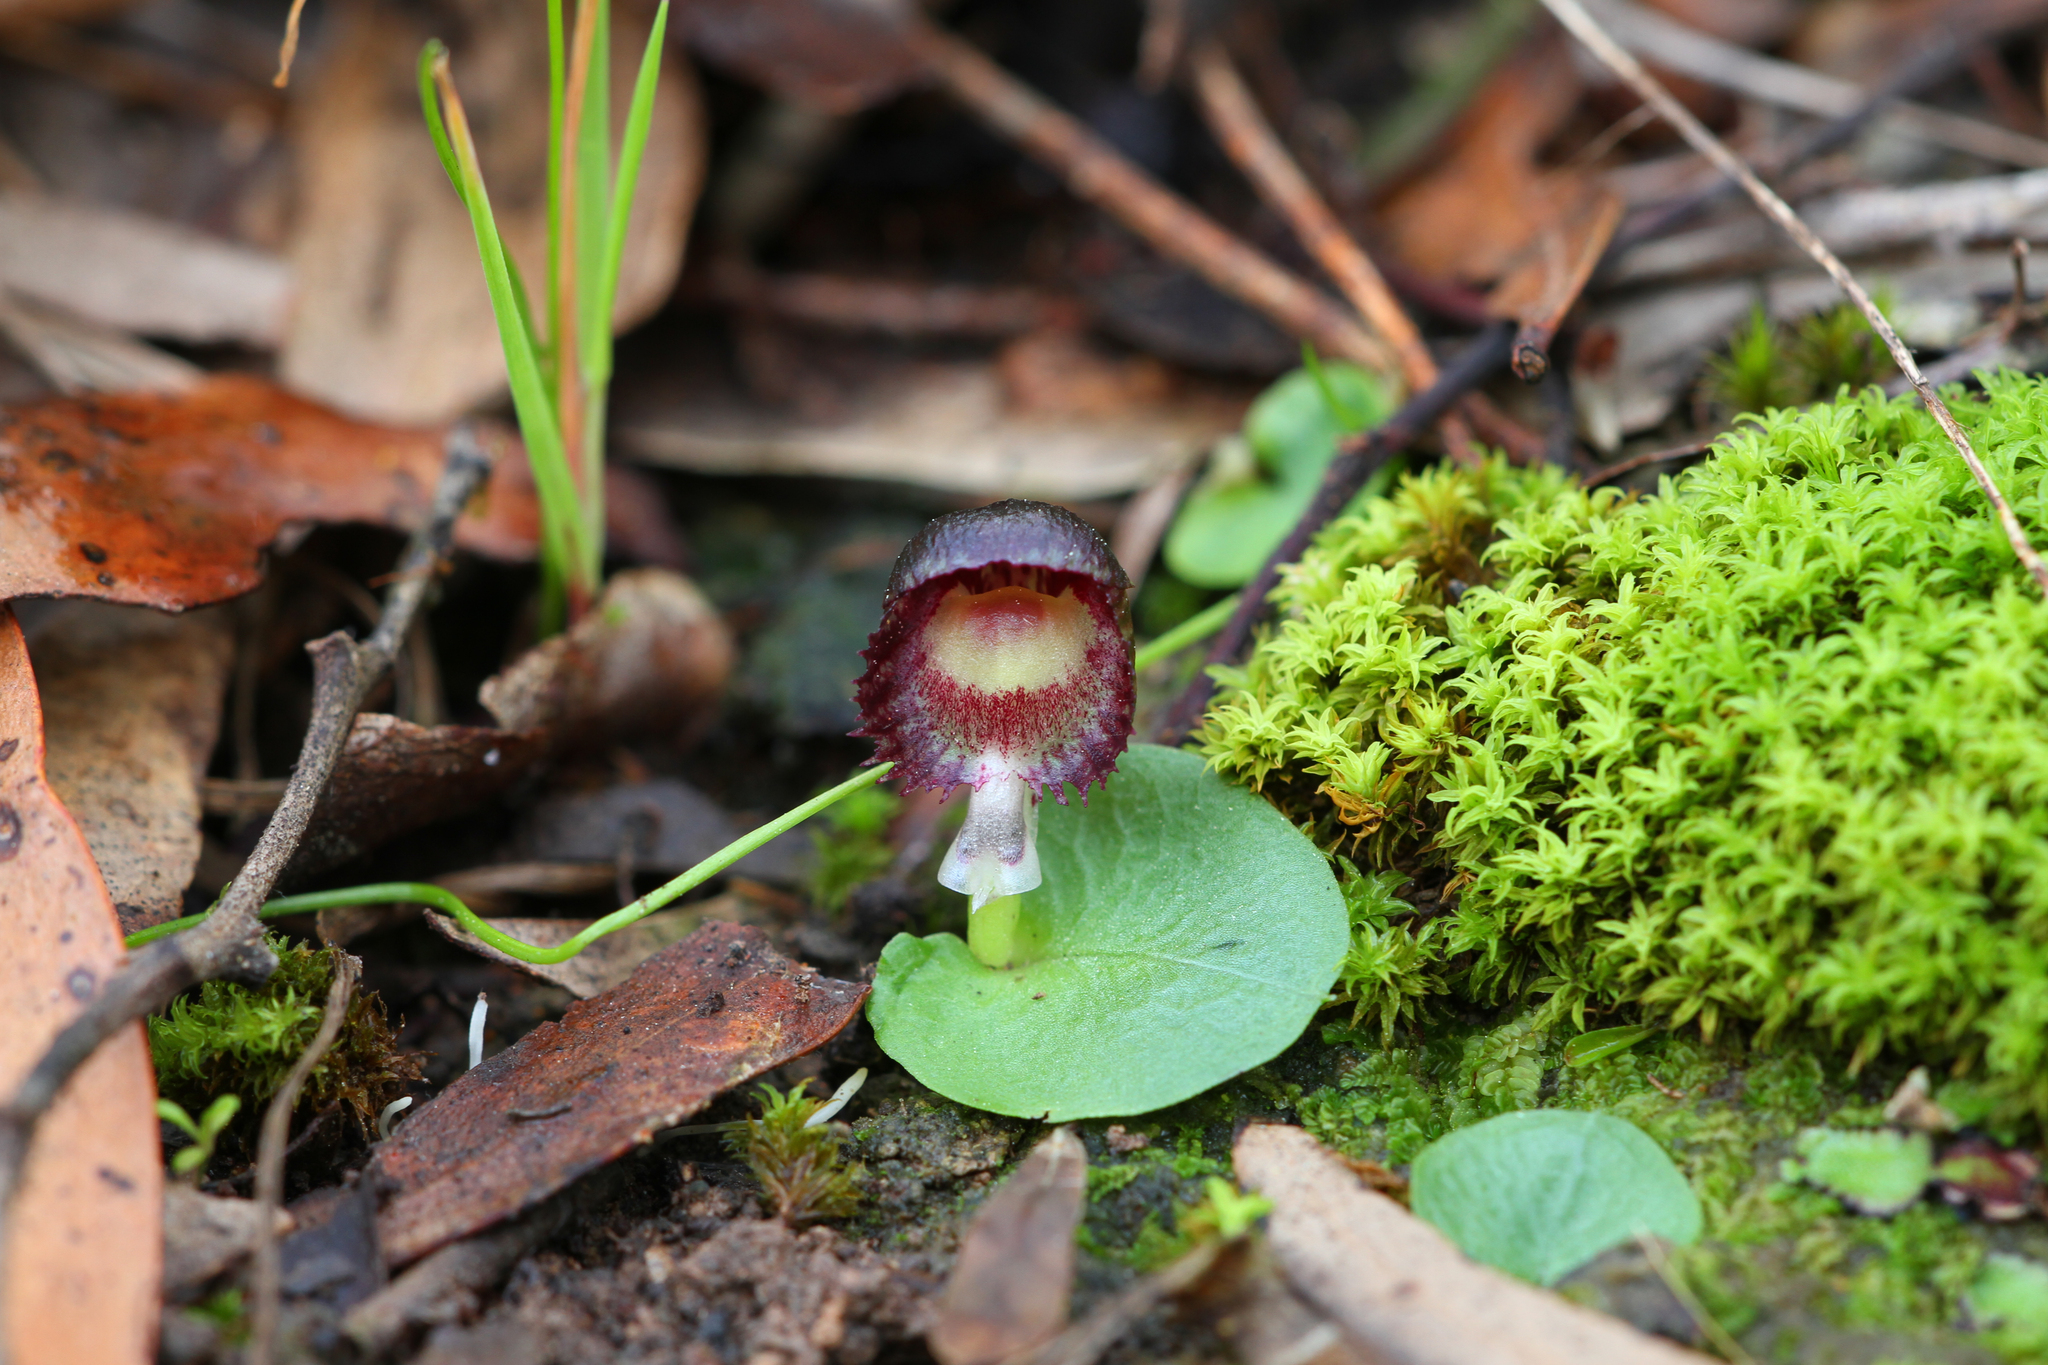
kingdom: Plantae
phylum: Tracheophyta
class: Liliopsida
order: Asparagales
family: Orchidaceae
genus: Corybas
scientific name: Corybas diemenicus
